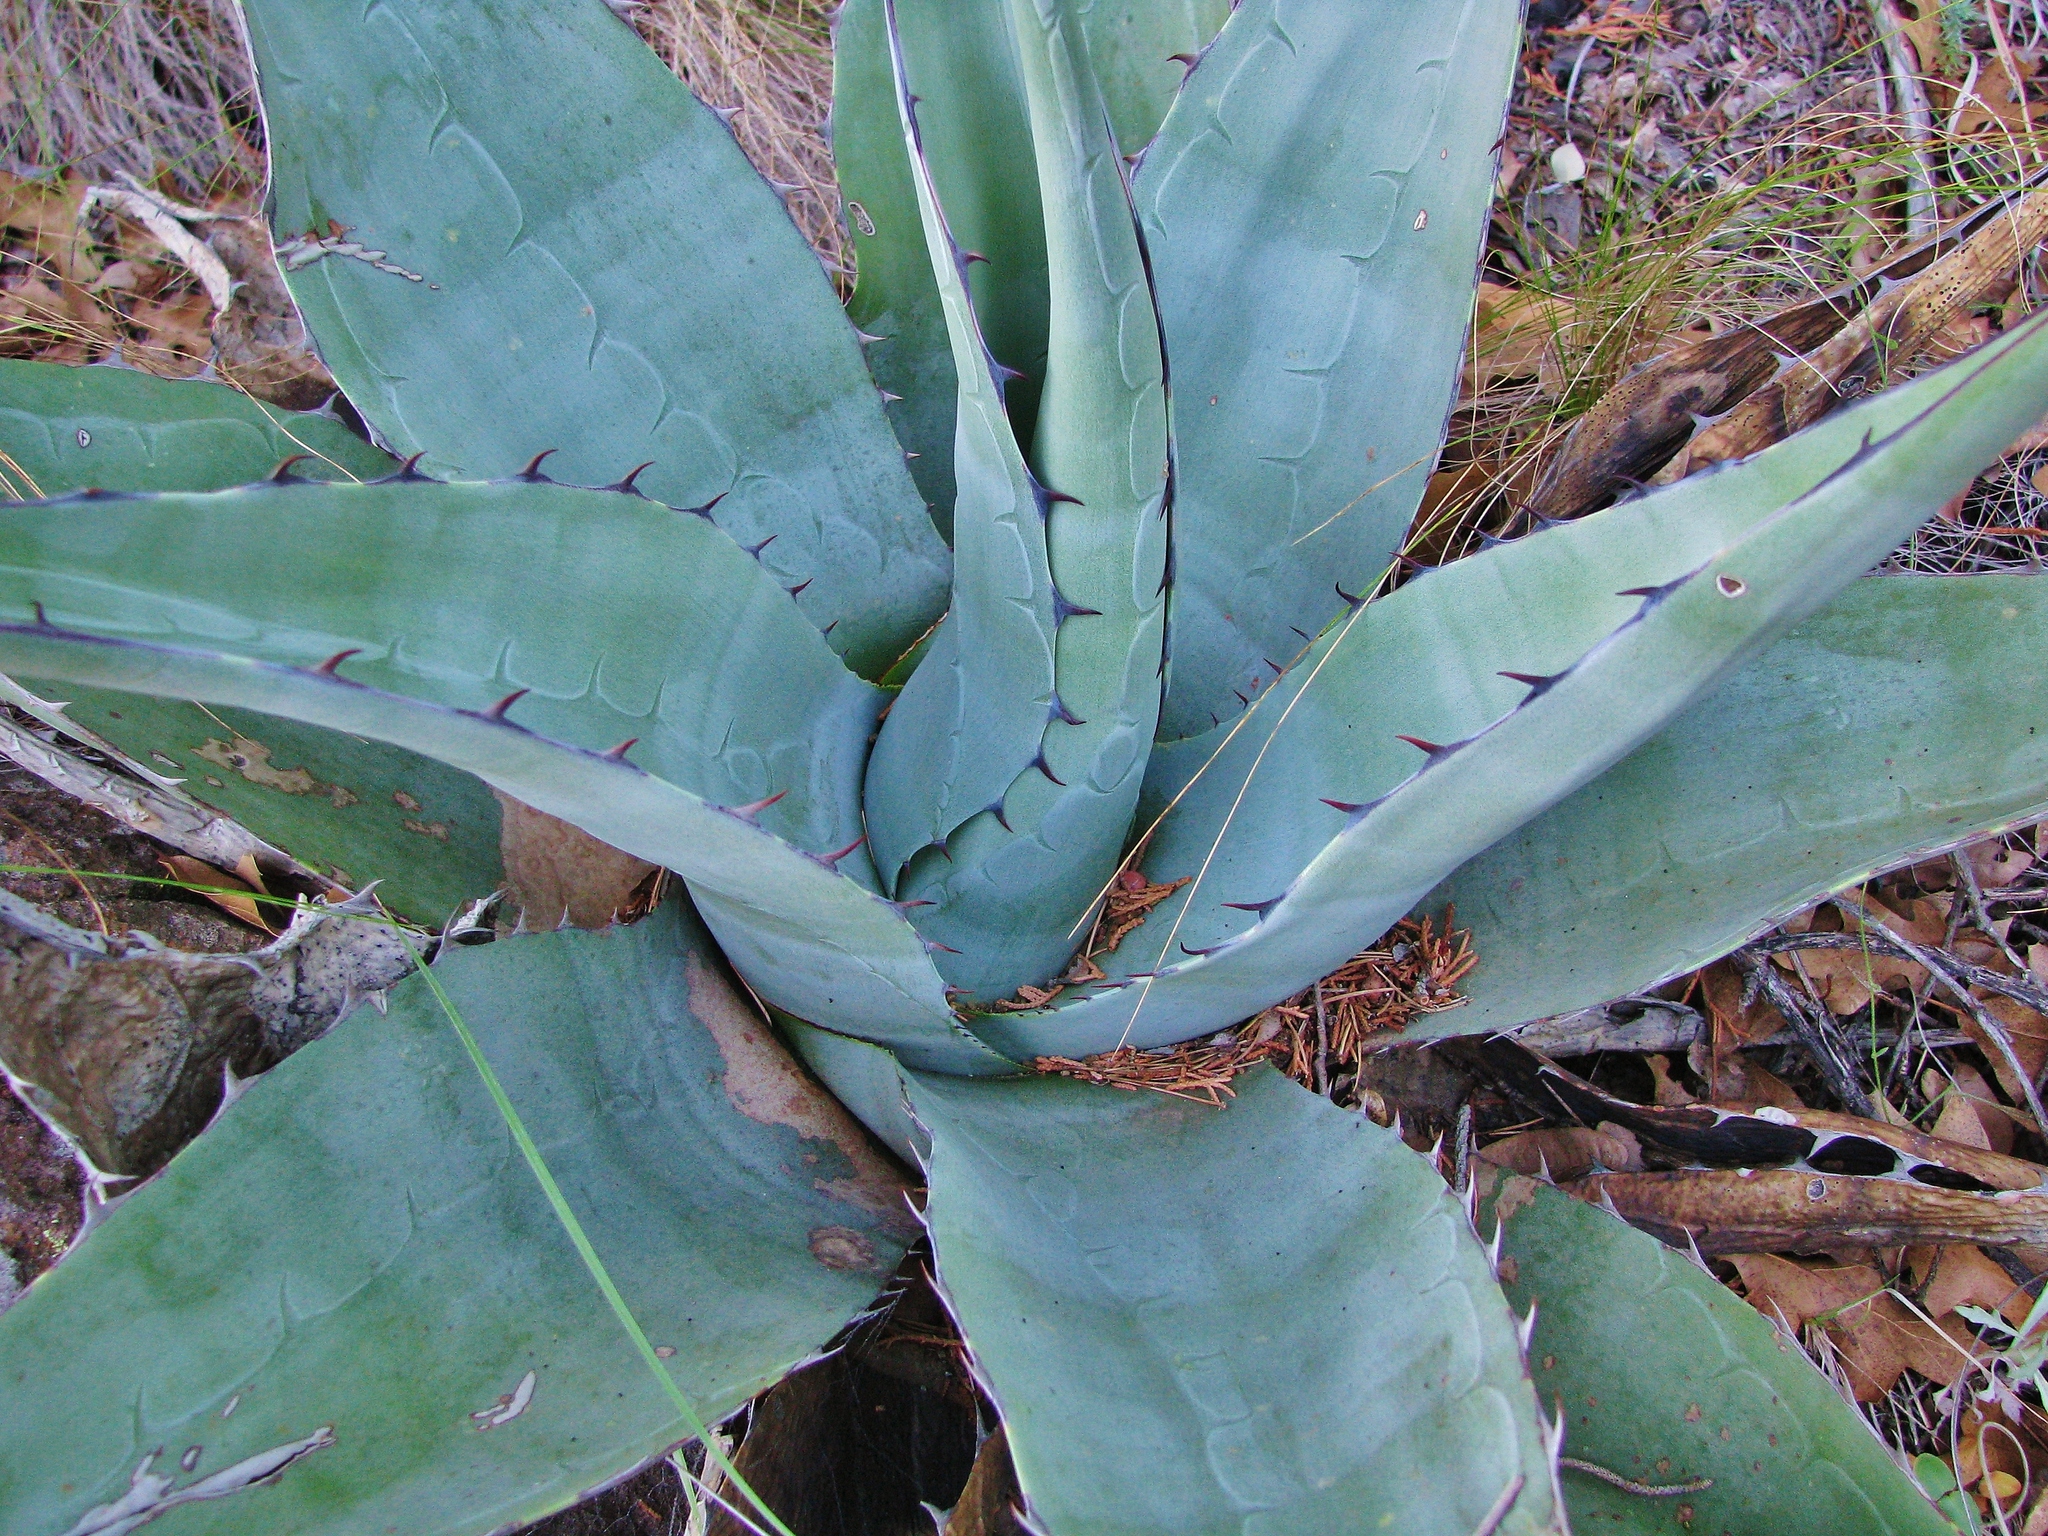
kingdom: Plantae
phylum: Tracheophyta
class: Liliopsida
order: Asparagales
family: Asparagaceae
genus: Agave
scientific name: Agave havardiana
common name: Havard agave
